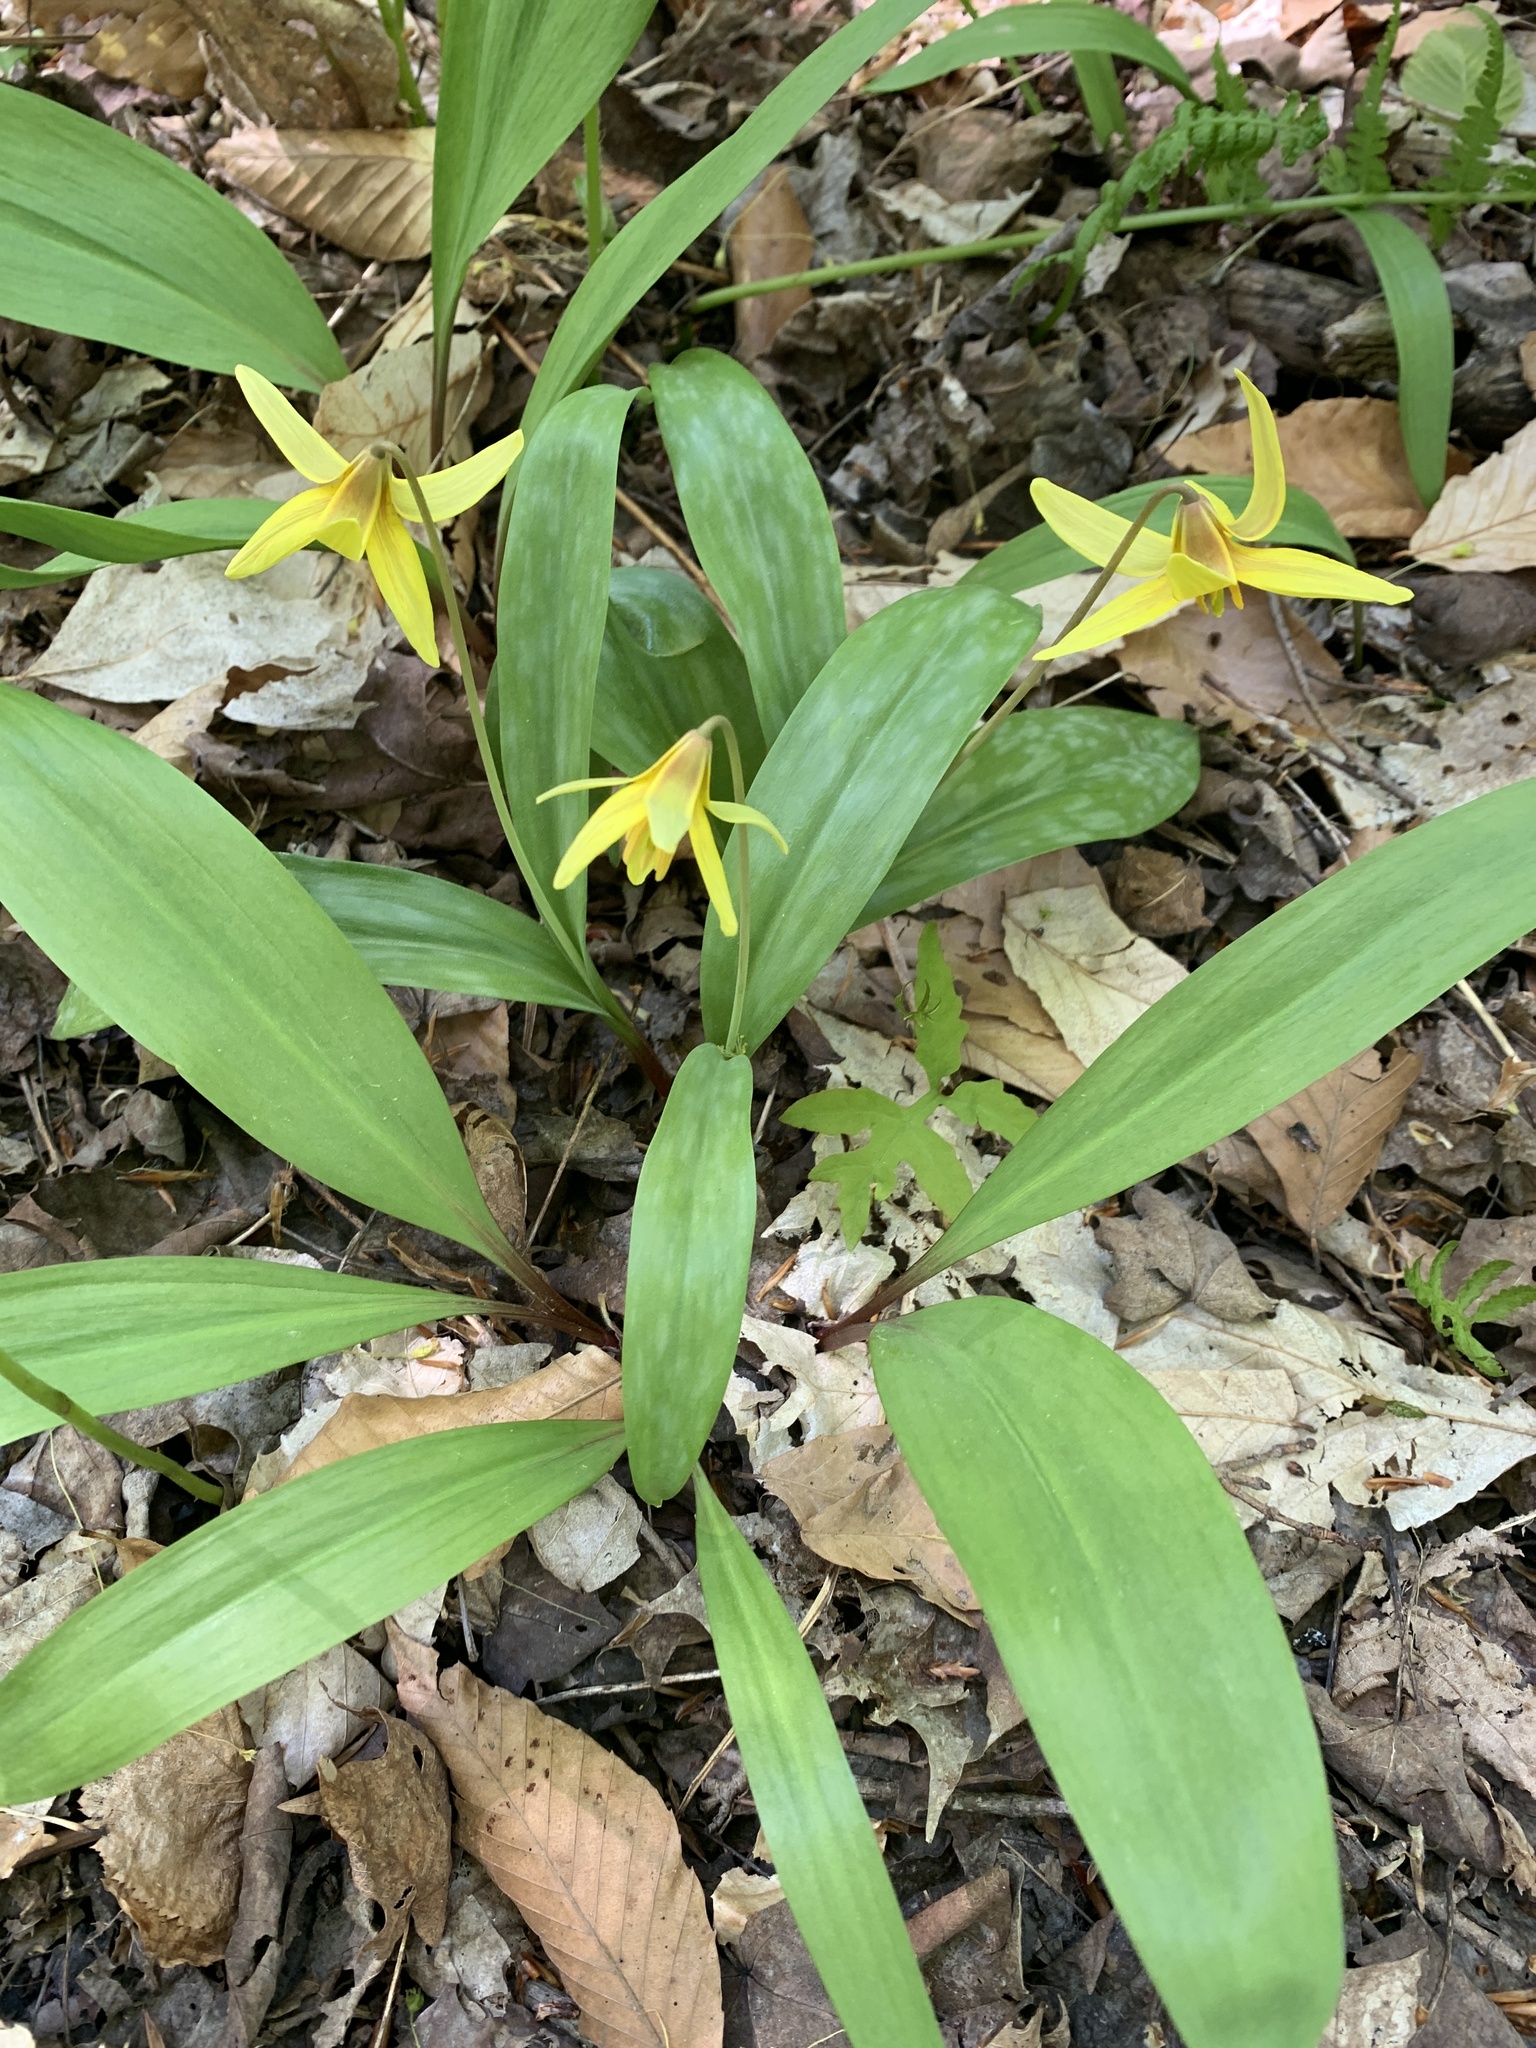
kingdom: Plantae
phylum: Tracheophyta
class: Liliopsida
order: Liliales
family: Liliaceae
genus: Erythronium
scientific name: Erythronium americanum
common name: Yellow adder's-tongue
